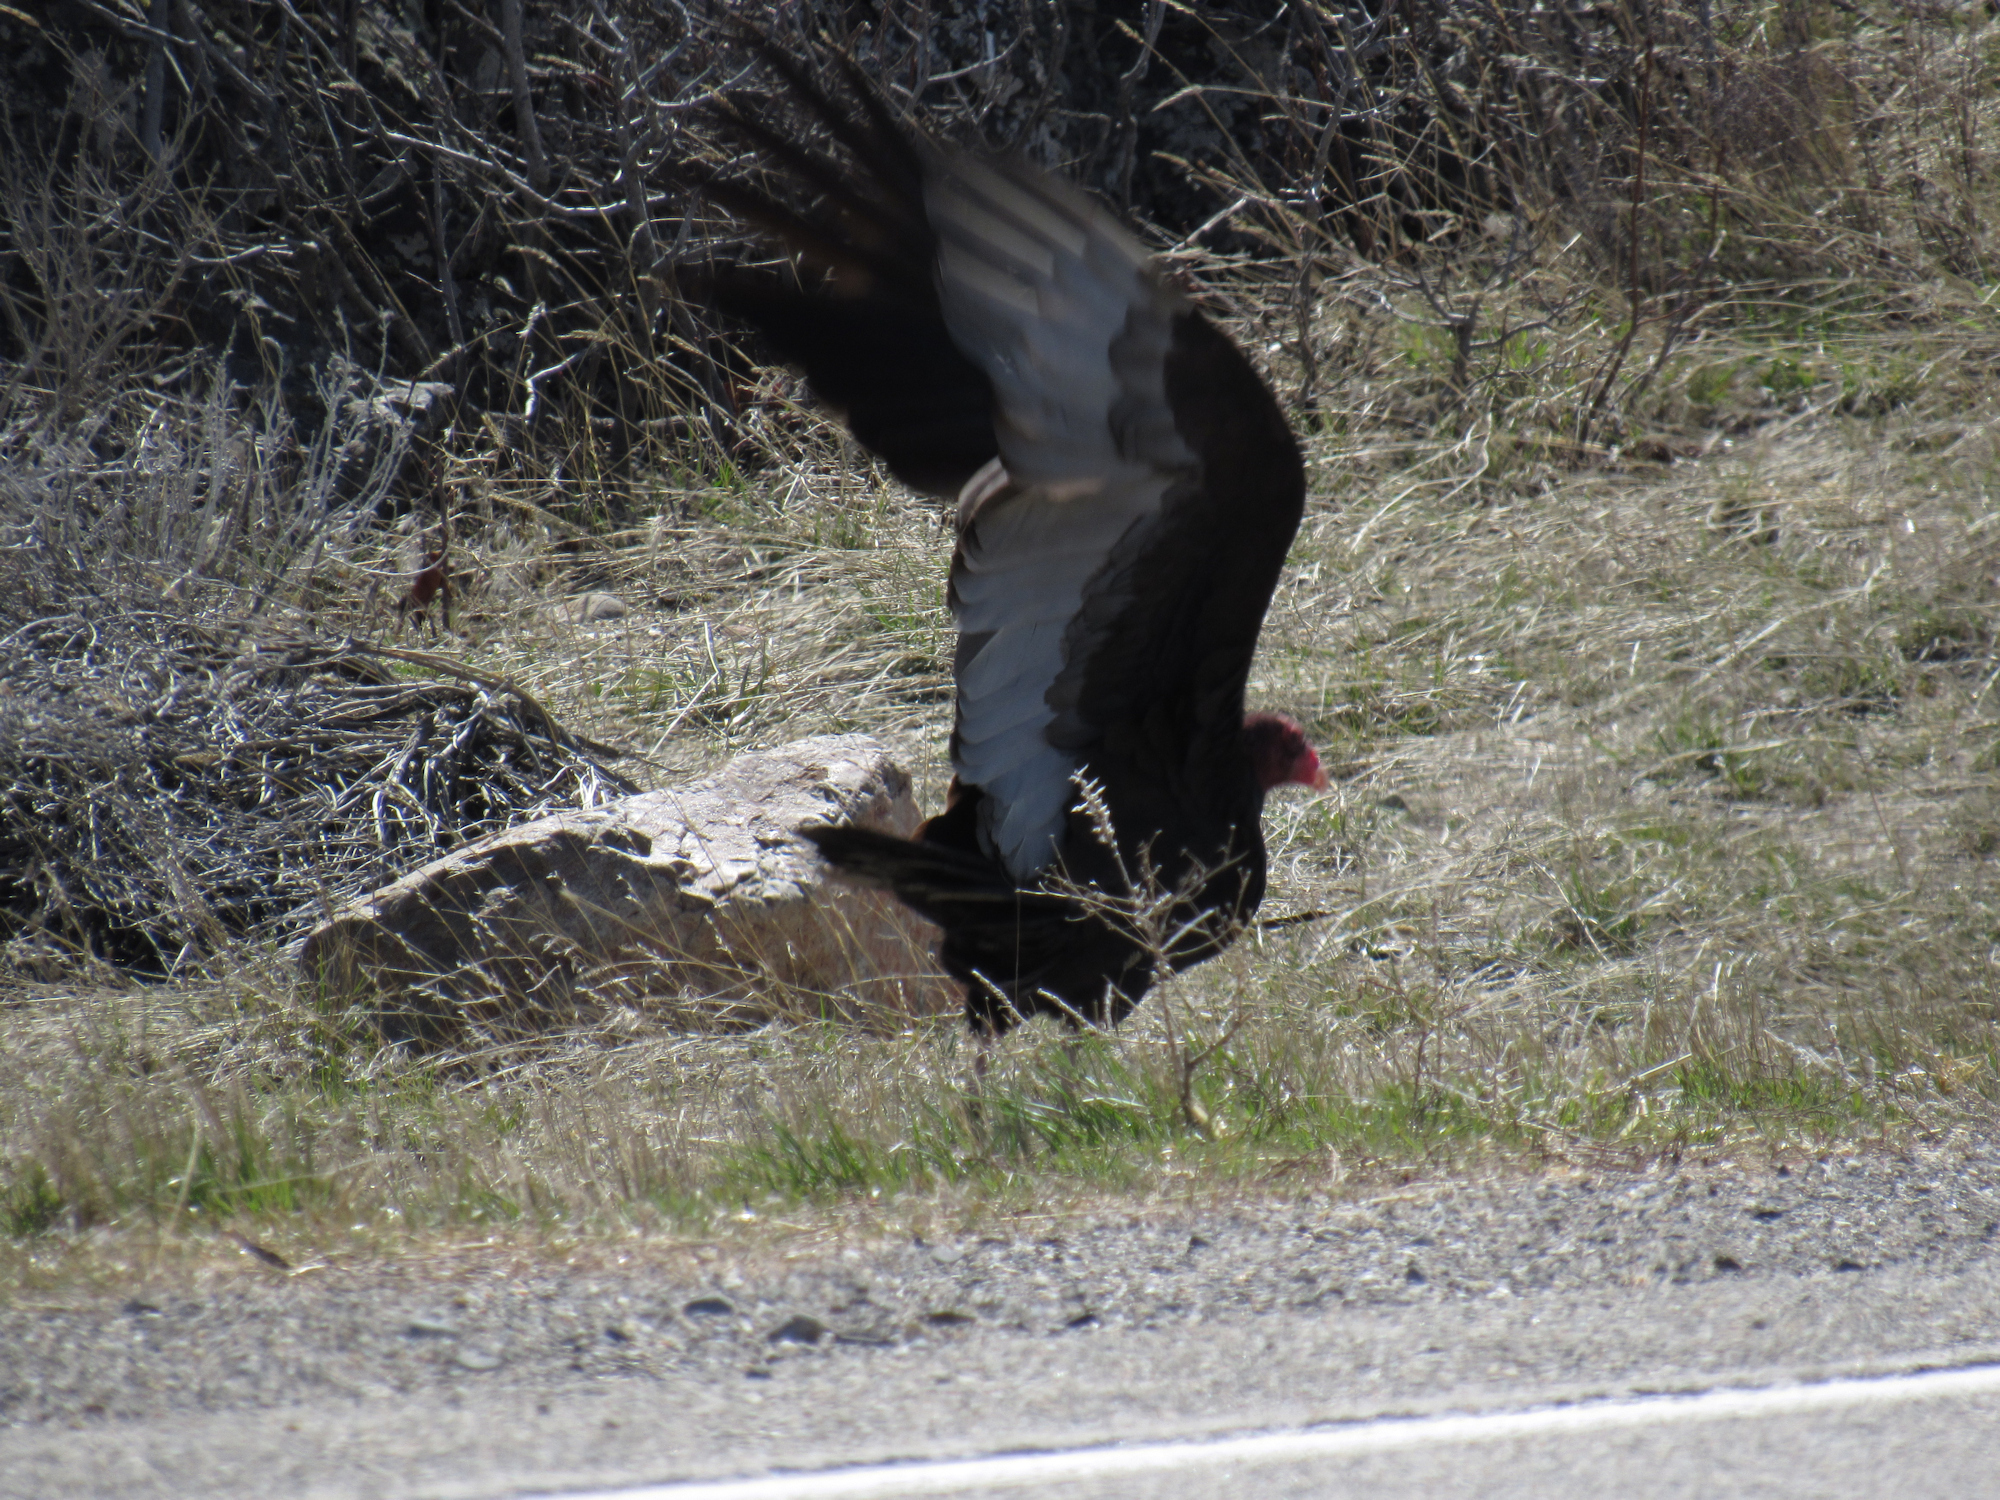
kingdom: Animalia
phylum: Chordata
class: Aves
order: Accipitriformes
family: Cathartidae
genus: Cathartes
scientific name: Cathartes aura
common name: Turkey vulture
